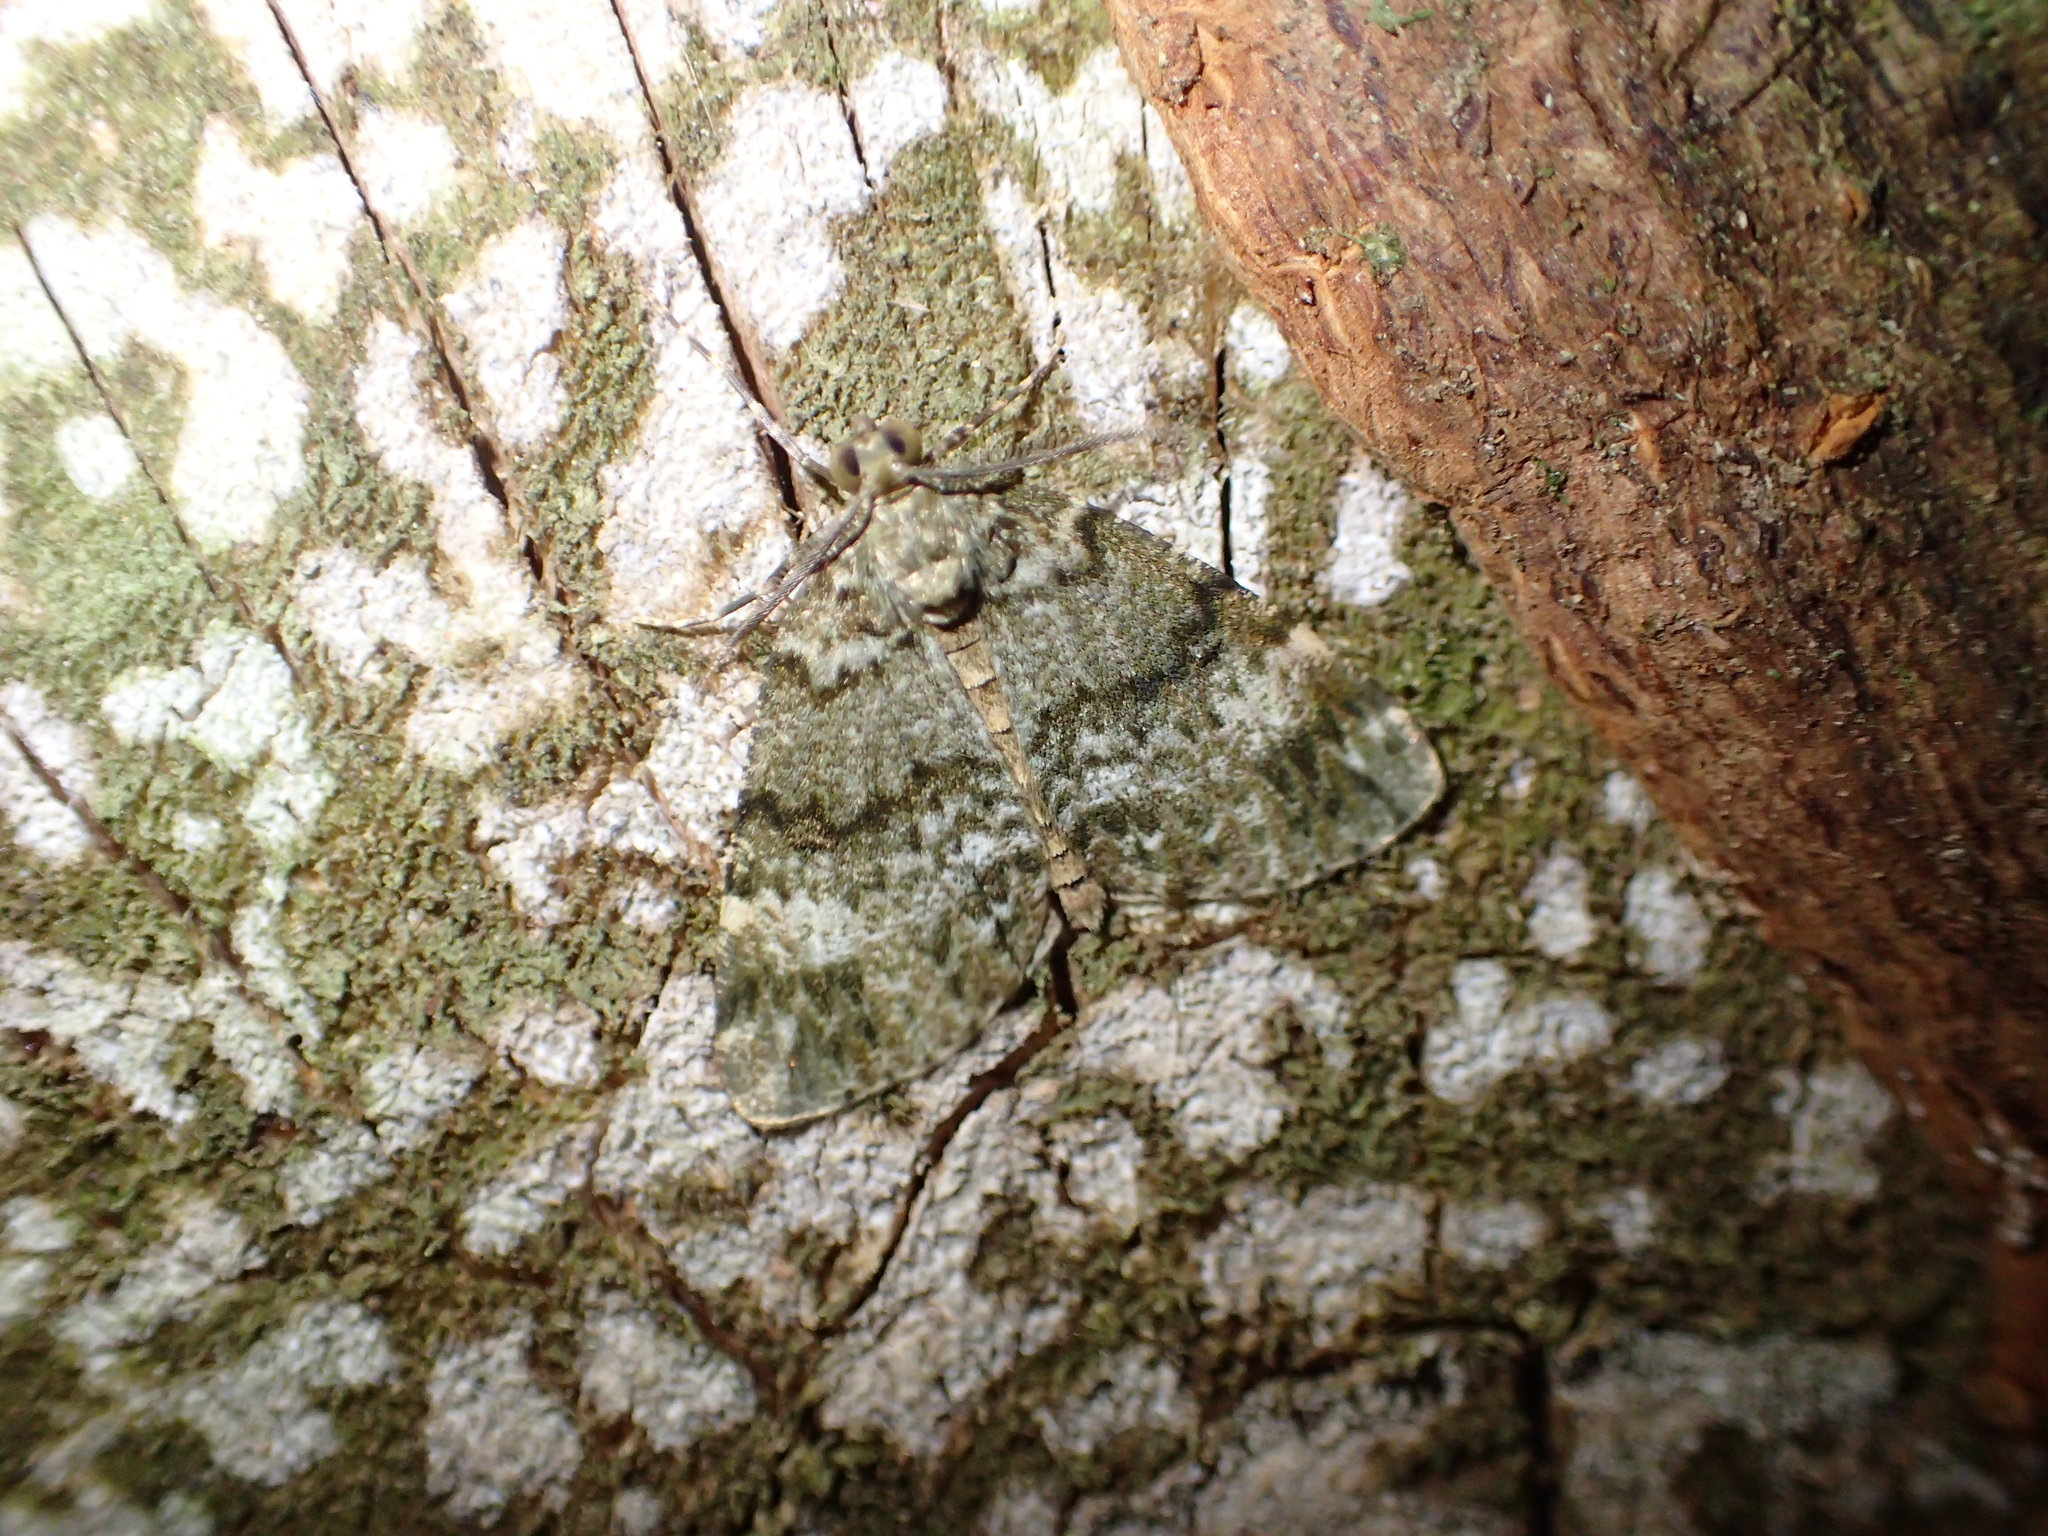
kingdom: Animalia
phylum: Arthropoda
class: Insecta
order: Lepidoptera
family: Geometridae
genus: Pseudocoremia
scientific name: Pseudocoremia indistincta
